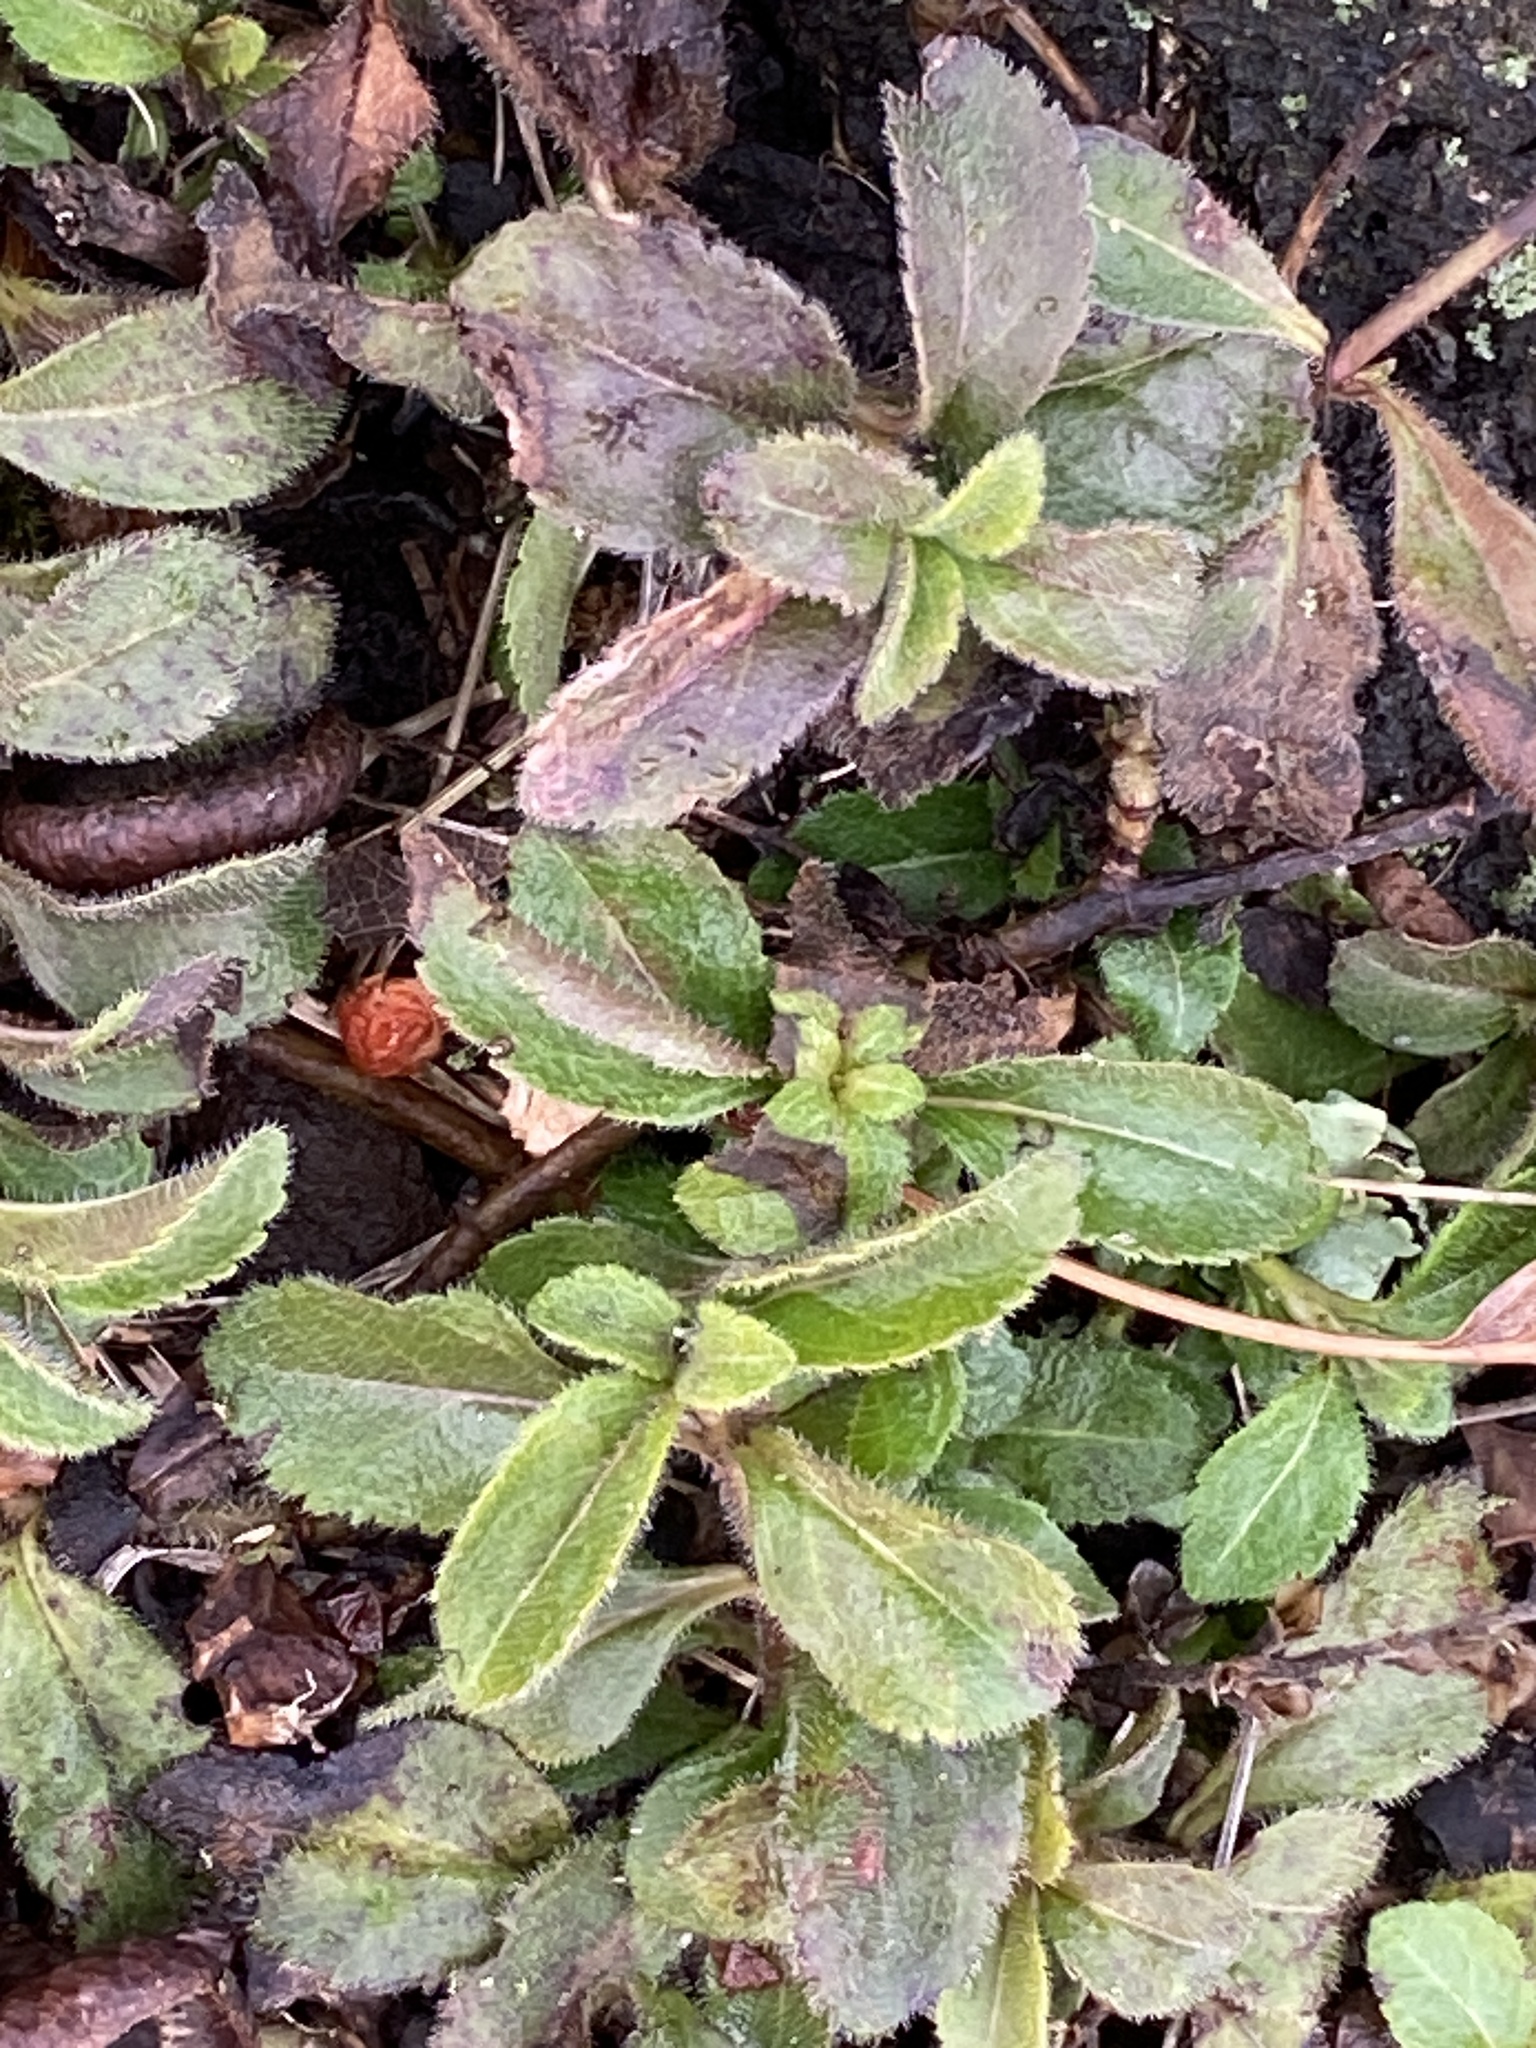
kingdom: Plantae
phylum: Tracheophyta
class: Magnoliopsida
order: Lamiales
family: Plantaginaceae
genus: Veronica
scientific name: Veronica officinalis
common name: Common speedwell
